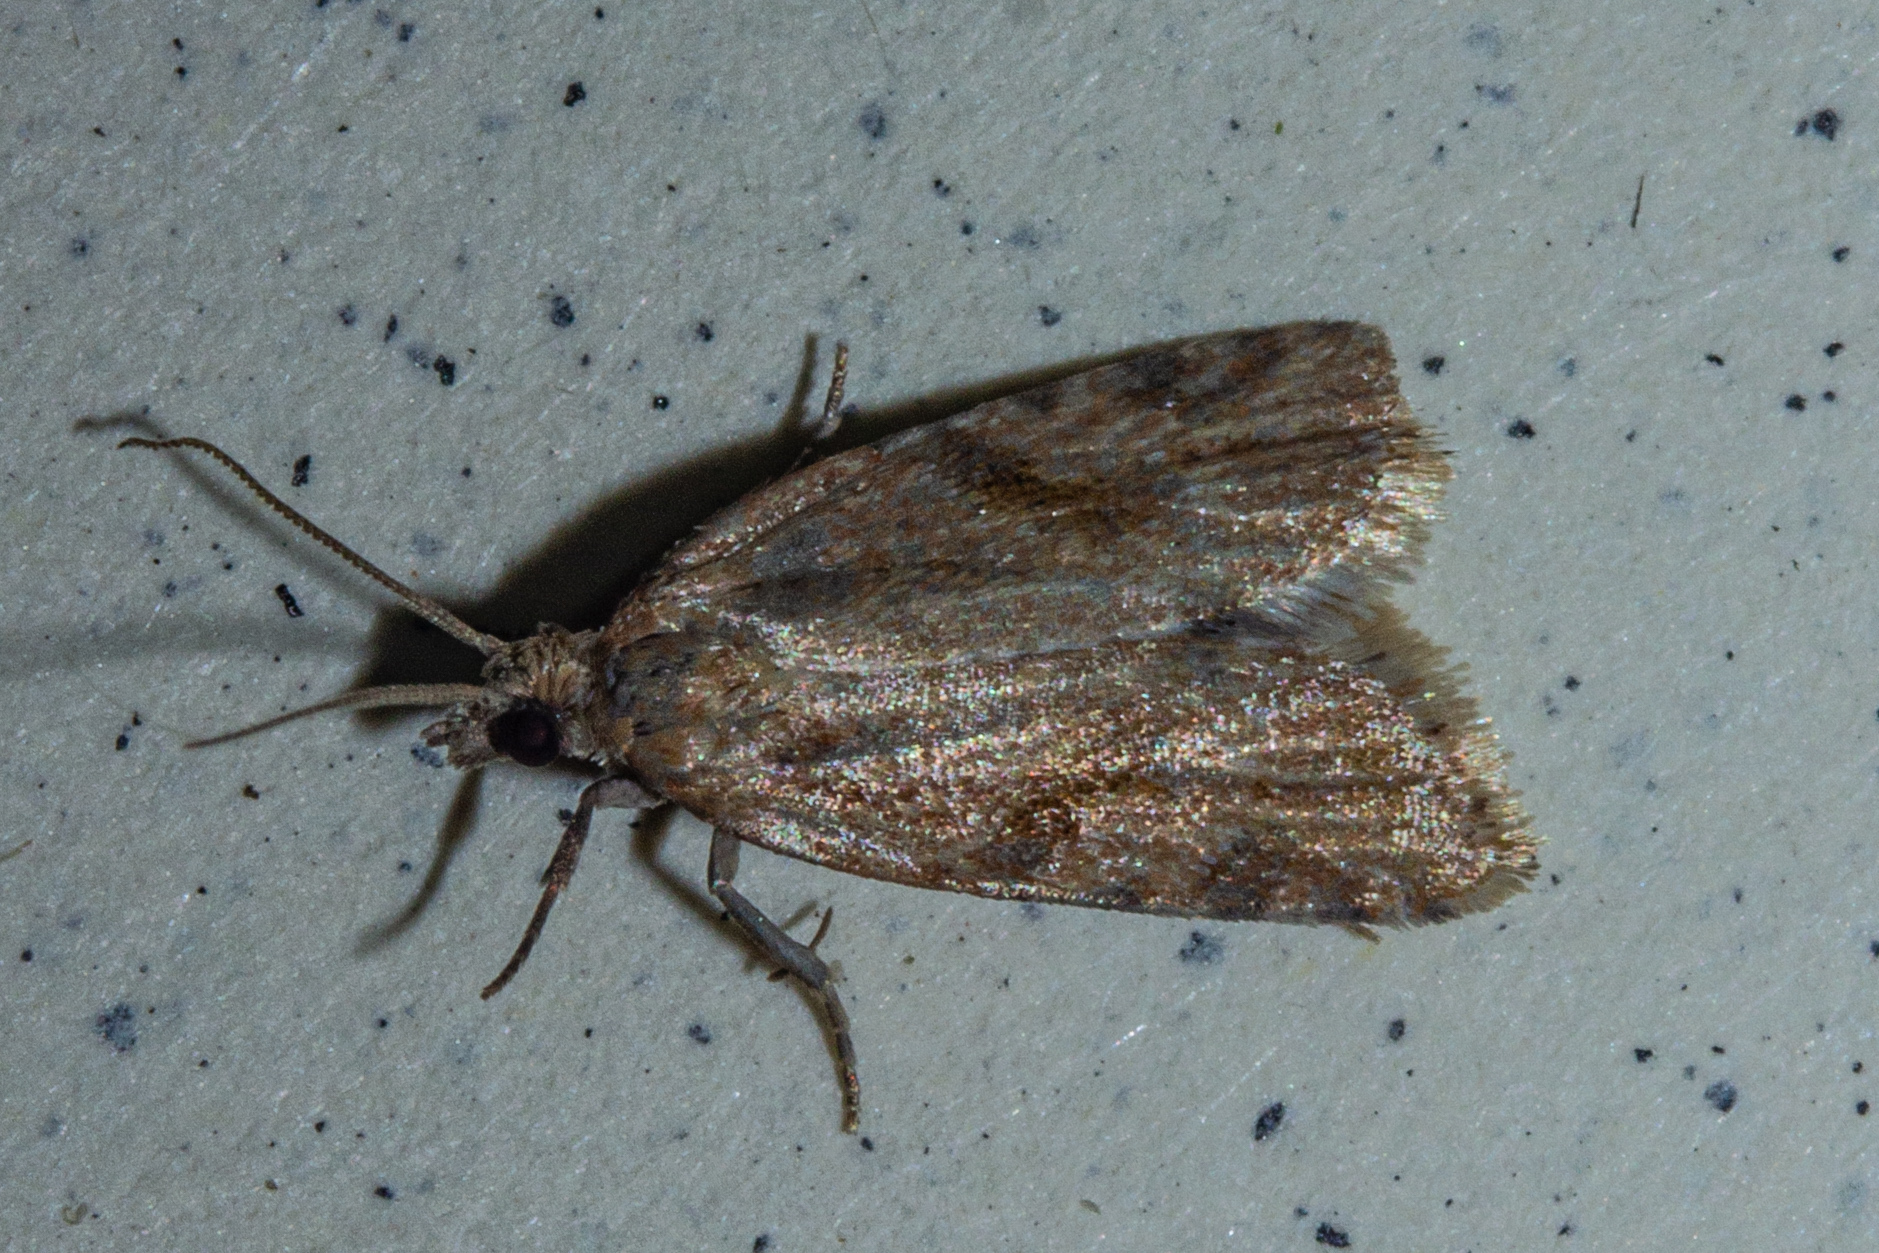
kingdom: Animalia
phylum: Arthropoda
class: Insecta
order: Lepidoptera
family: Tortricidae
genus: Capua
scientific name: Capua semiferana
